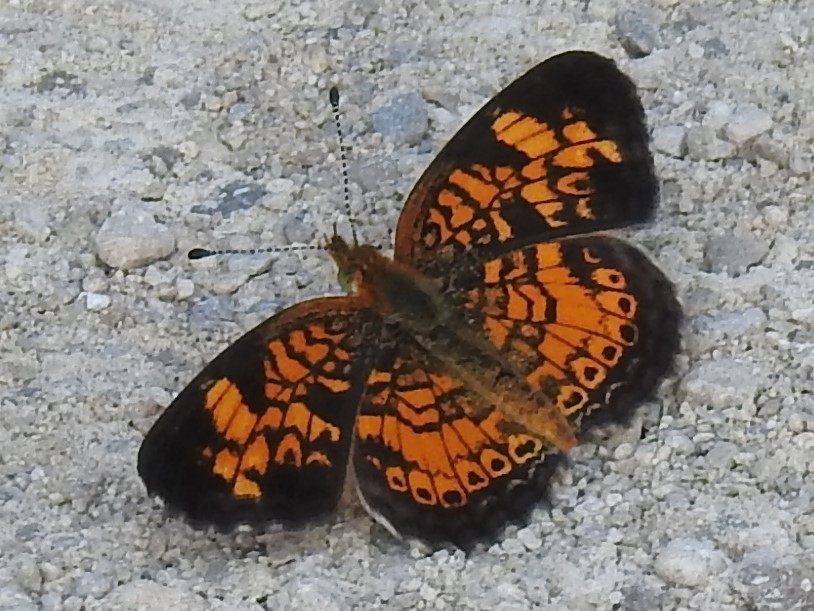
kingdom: Animalia
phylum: Arthropoda
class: Insecta
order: Lepidoptera
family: Nymphalidae
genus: Phyciodes
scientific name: Phyciodes tharos
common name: Pearl crescent
